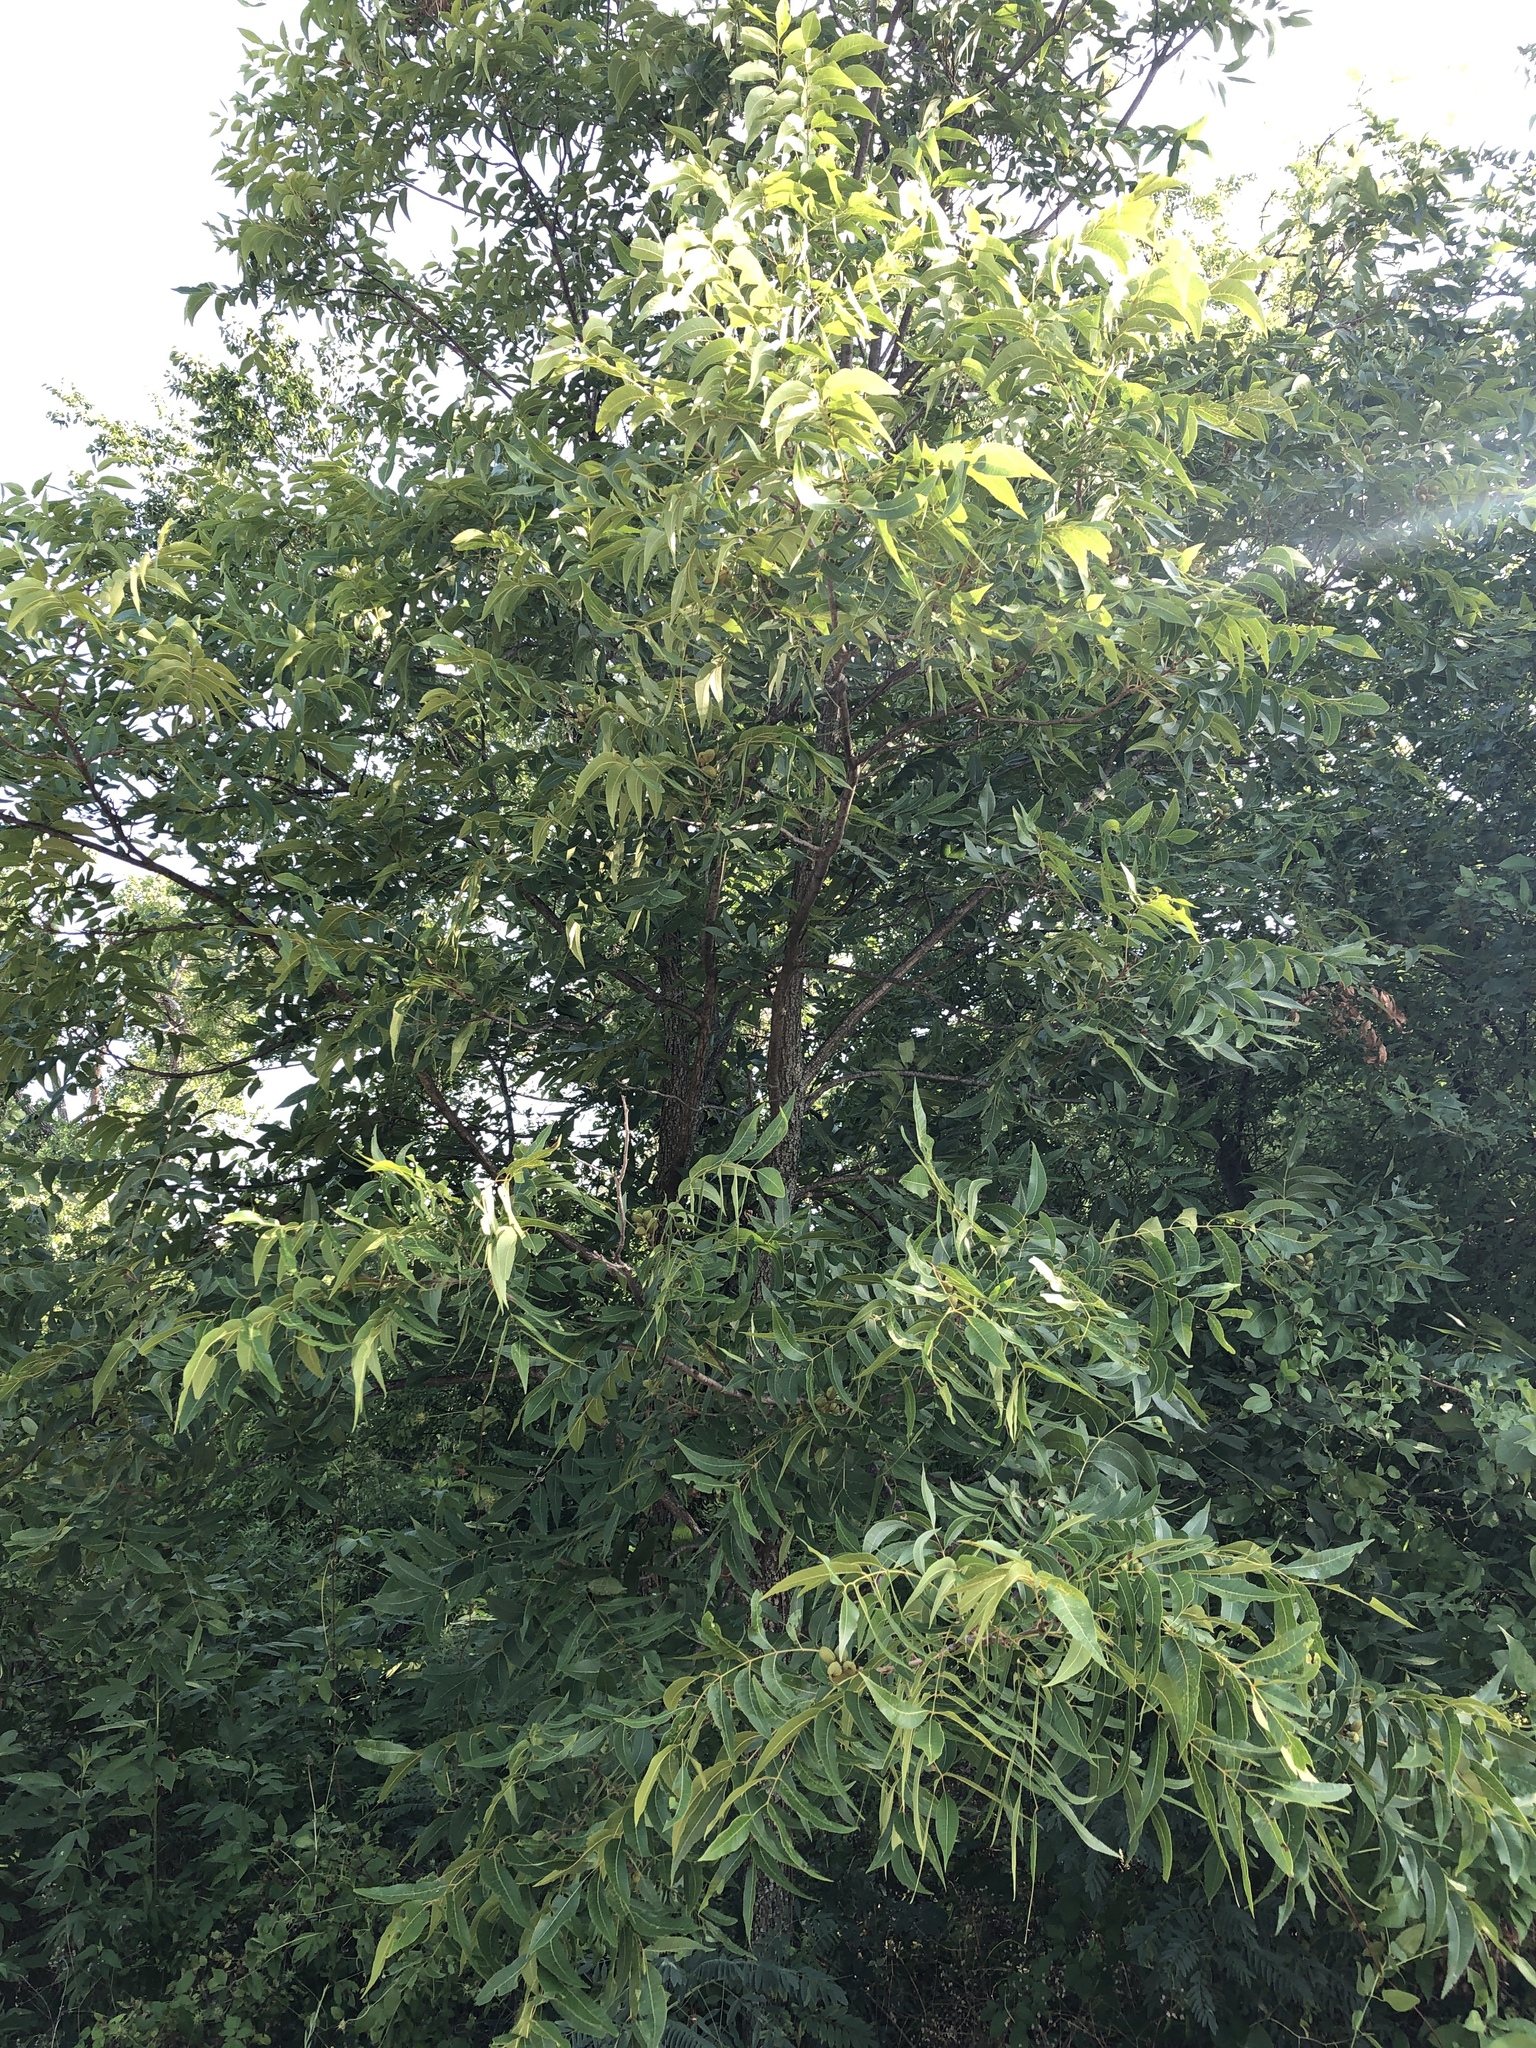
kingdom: Plantae
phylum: Tracheophyta
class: Magnoliopsida
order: Fagales
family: Juglandaceae
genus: Carya
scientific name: Carya illinoinensis
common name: Pecan
